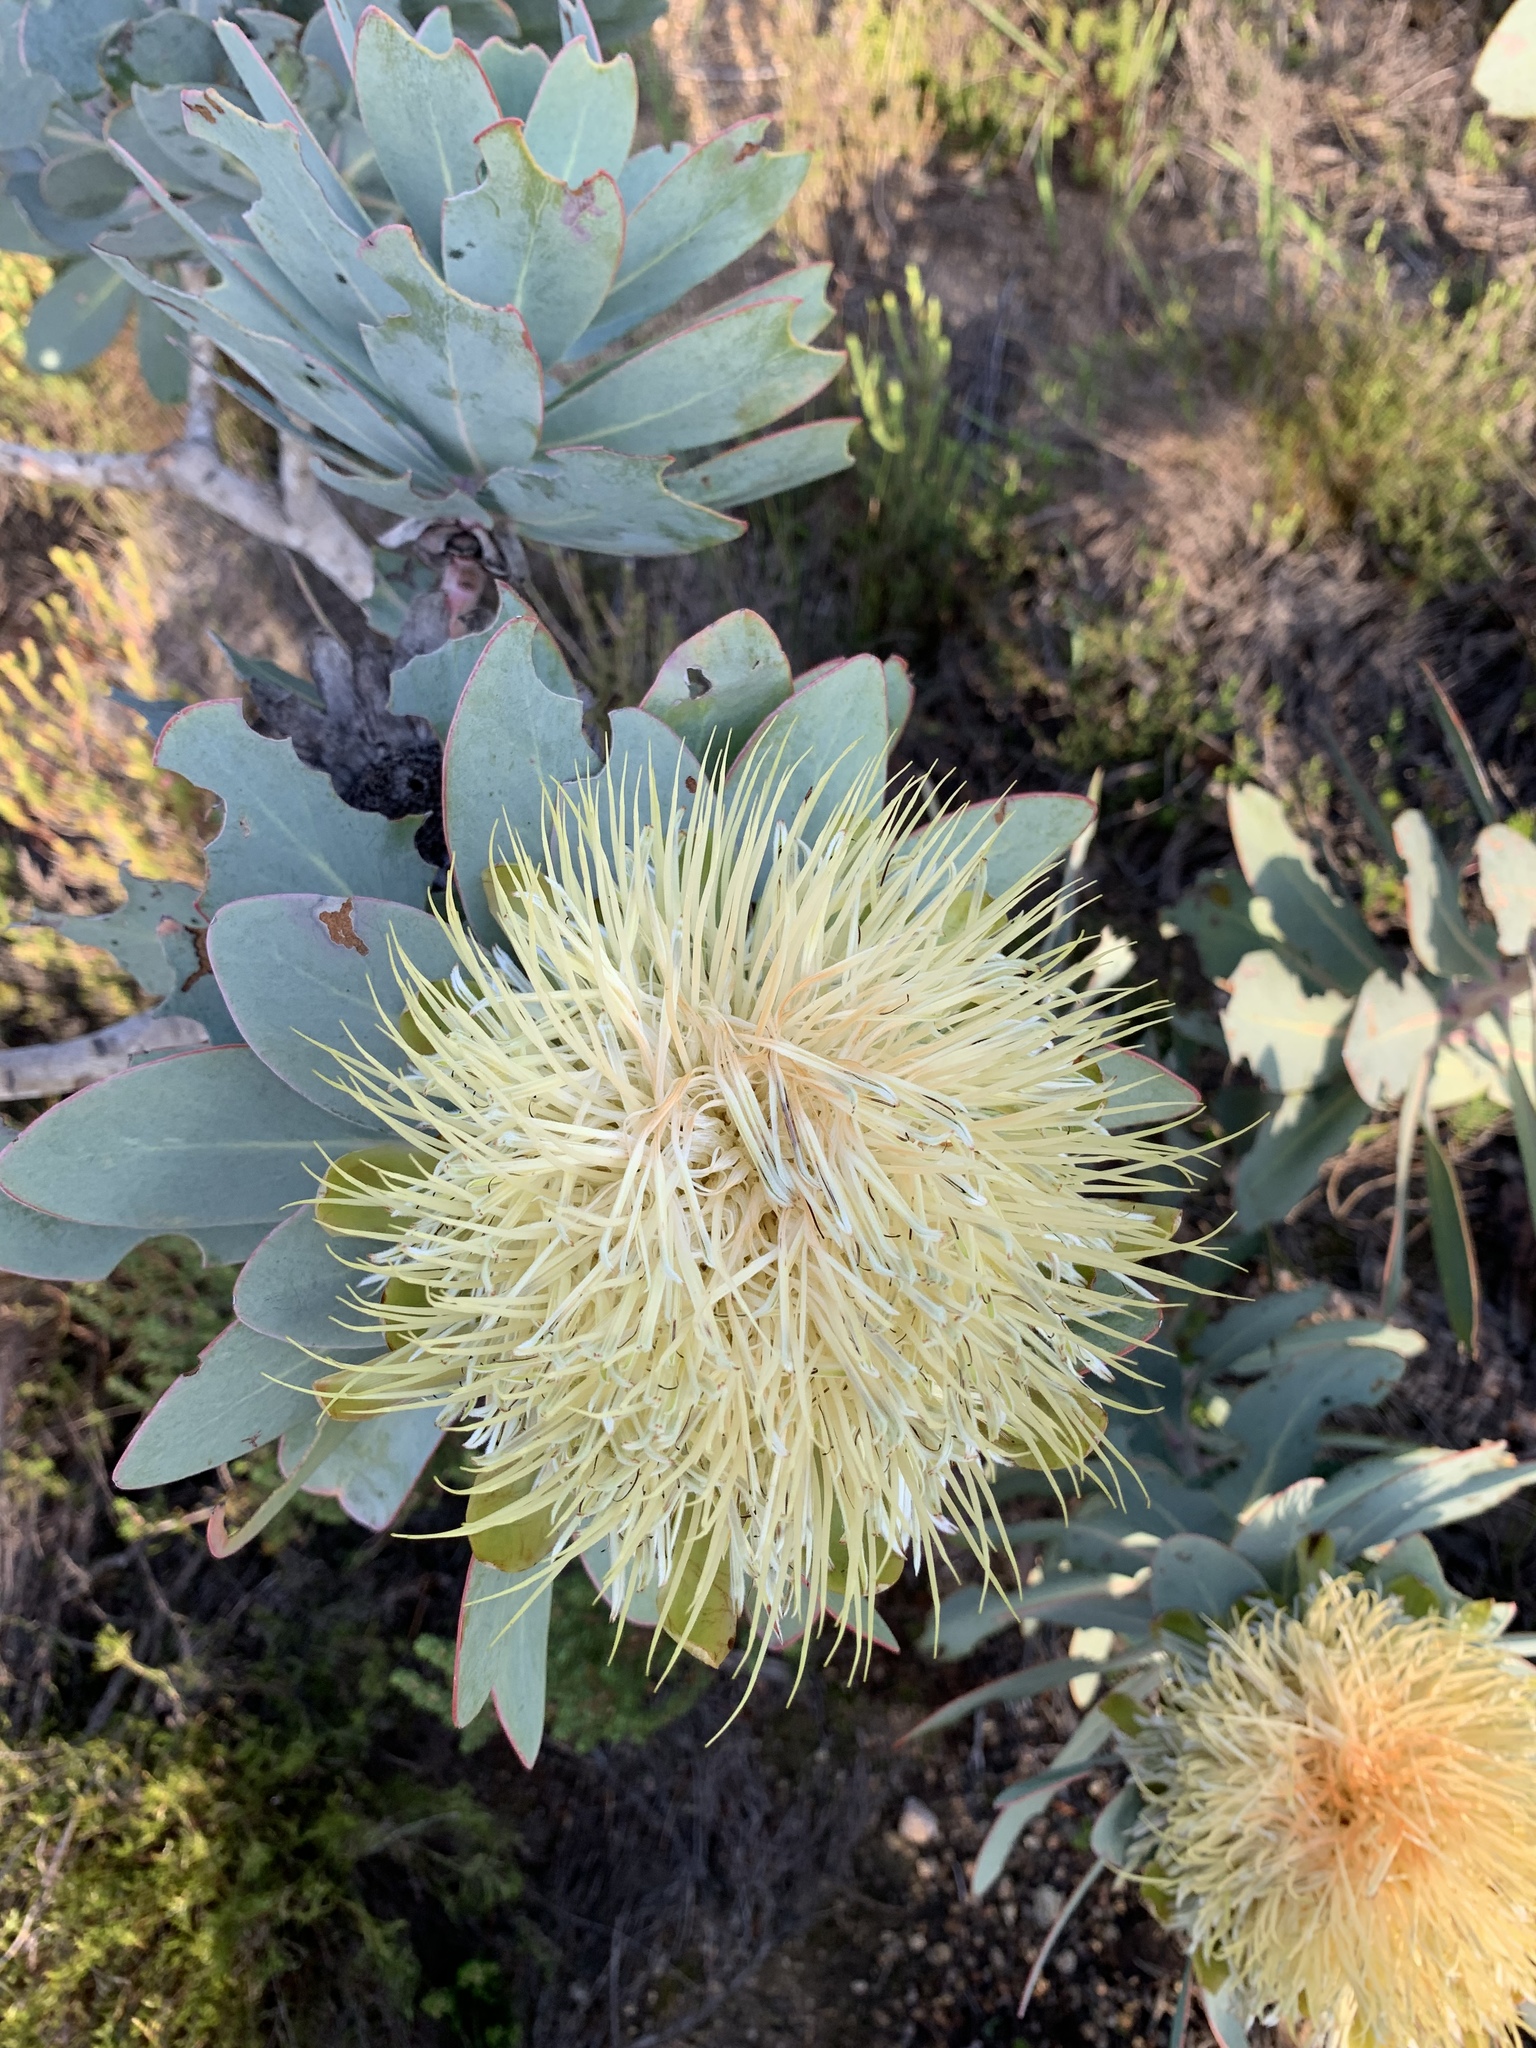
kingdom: Plantae
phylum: Tracheophyta
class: Magnoliopsida
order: Proteales
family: Proteaceae
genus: Protea
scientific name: Protea nitida
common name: Tree protea
